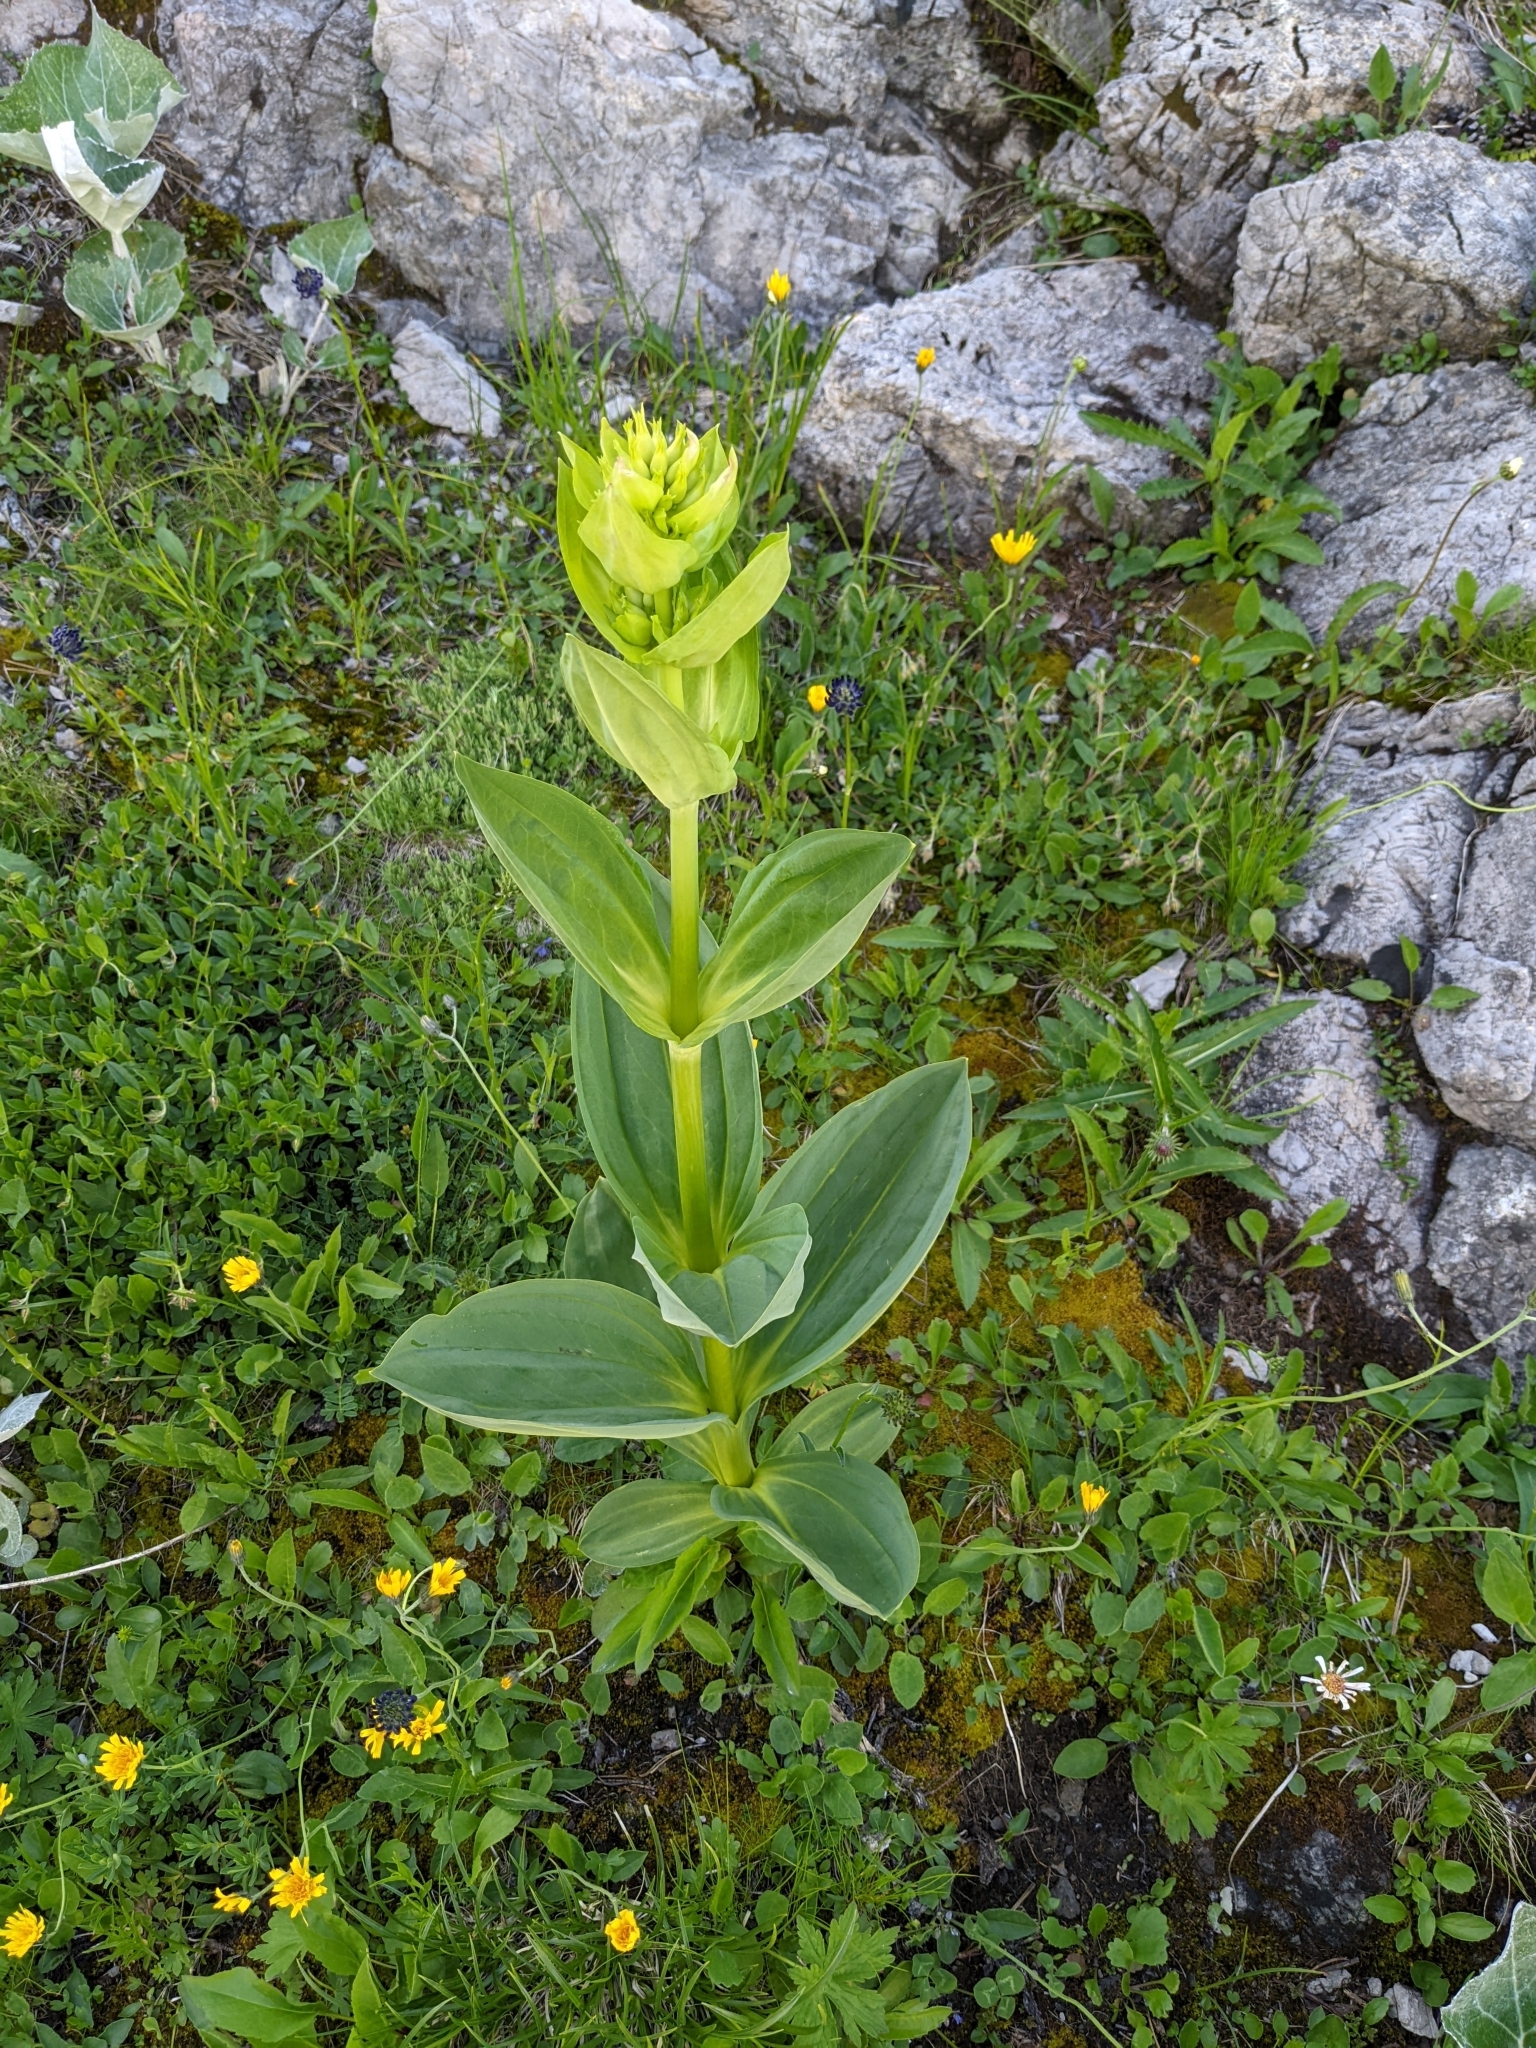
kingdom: Plantae
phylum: Tracheophyta
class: Magnoliopsida
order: Gentianales
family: Gentianaceae
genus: Gentiana
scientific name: Gentiana lutea
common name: Great yellow gentian
